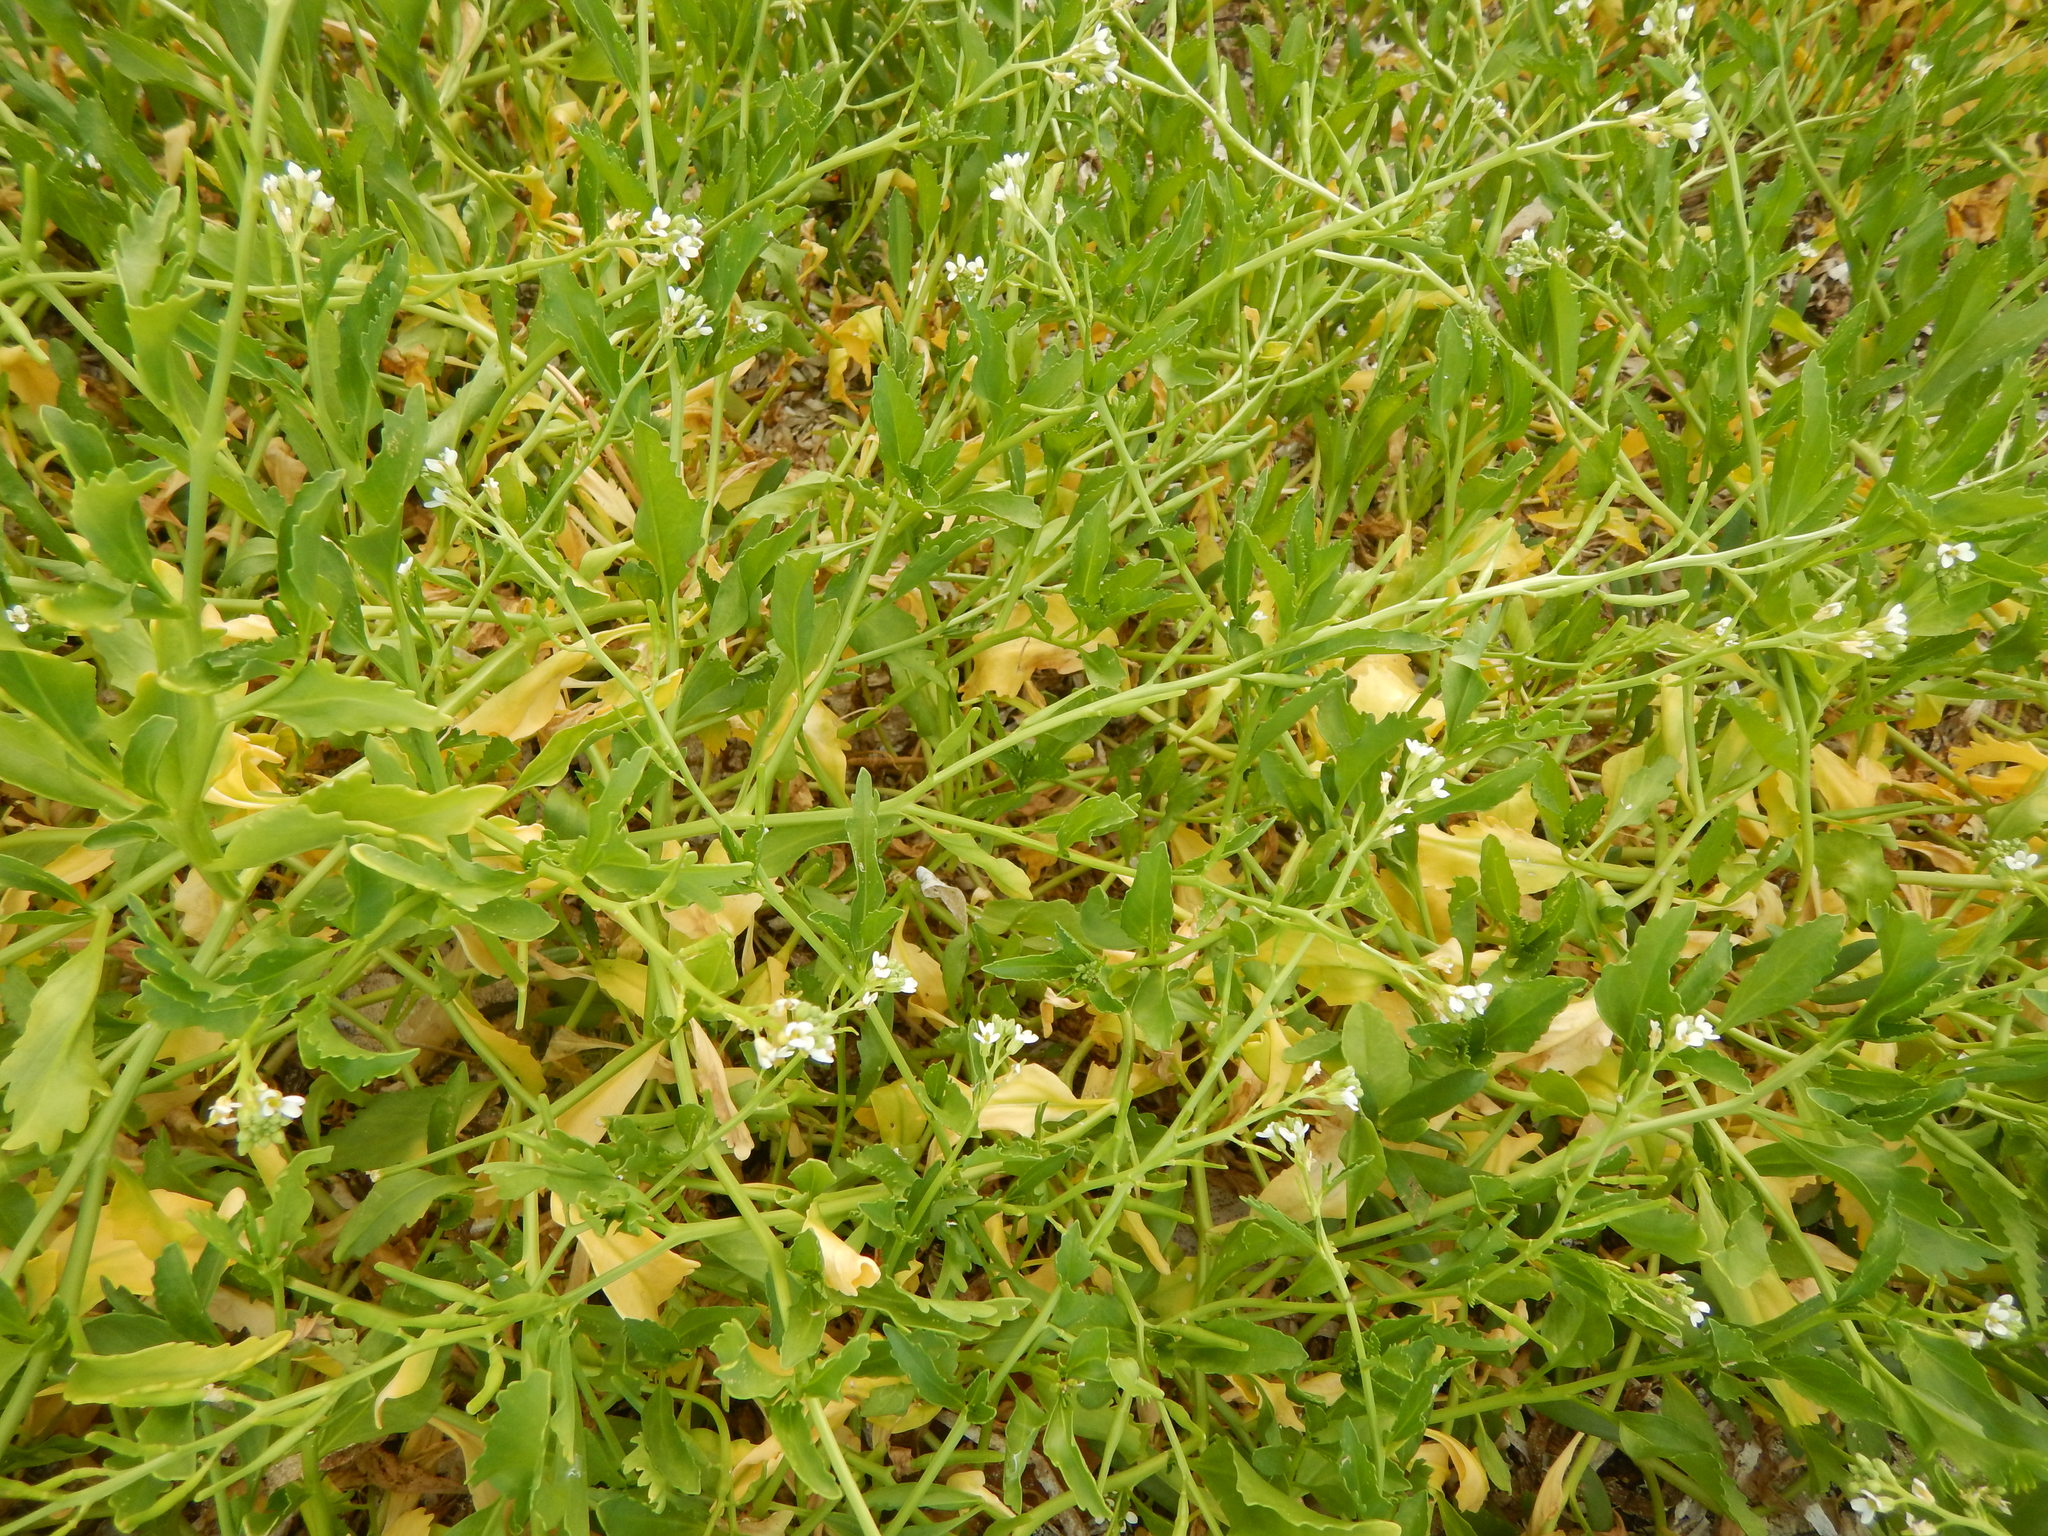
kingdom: Plantae
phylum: Tracheophyta
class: Magnoliopsida
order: Brassicales
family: Brassicaceae
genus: Cakile
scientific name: Cakile lanceolata
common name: Sea rocket
